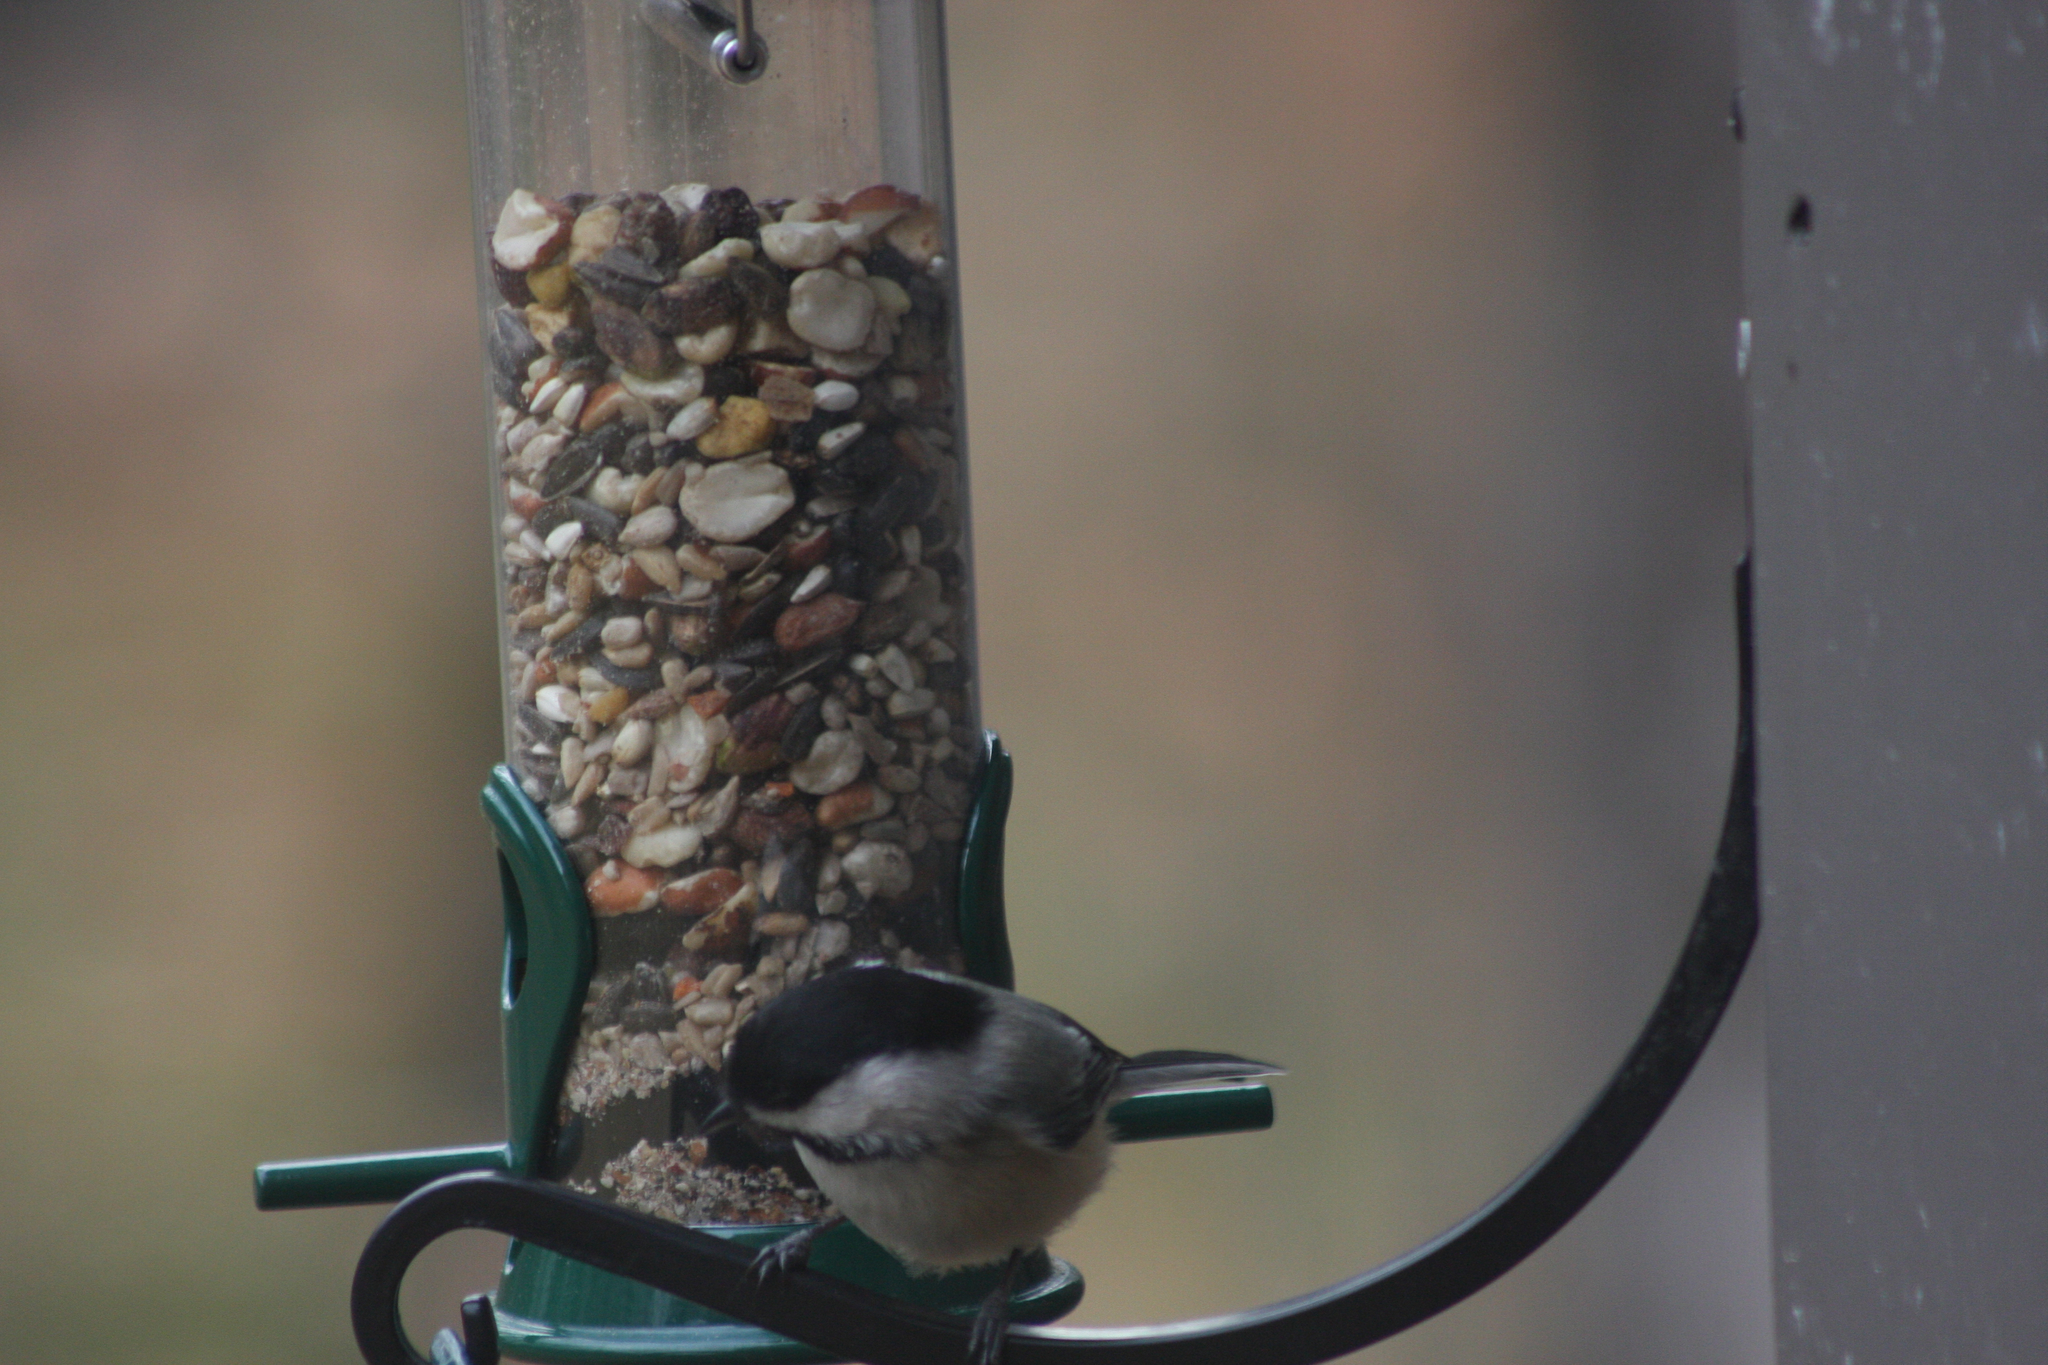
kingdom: Animalia
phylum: Chordata
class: Aves
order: Passeriformes
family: Paridae
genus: Poecile
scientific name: Poecile atricapillus
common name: Black-capped chickadee
